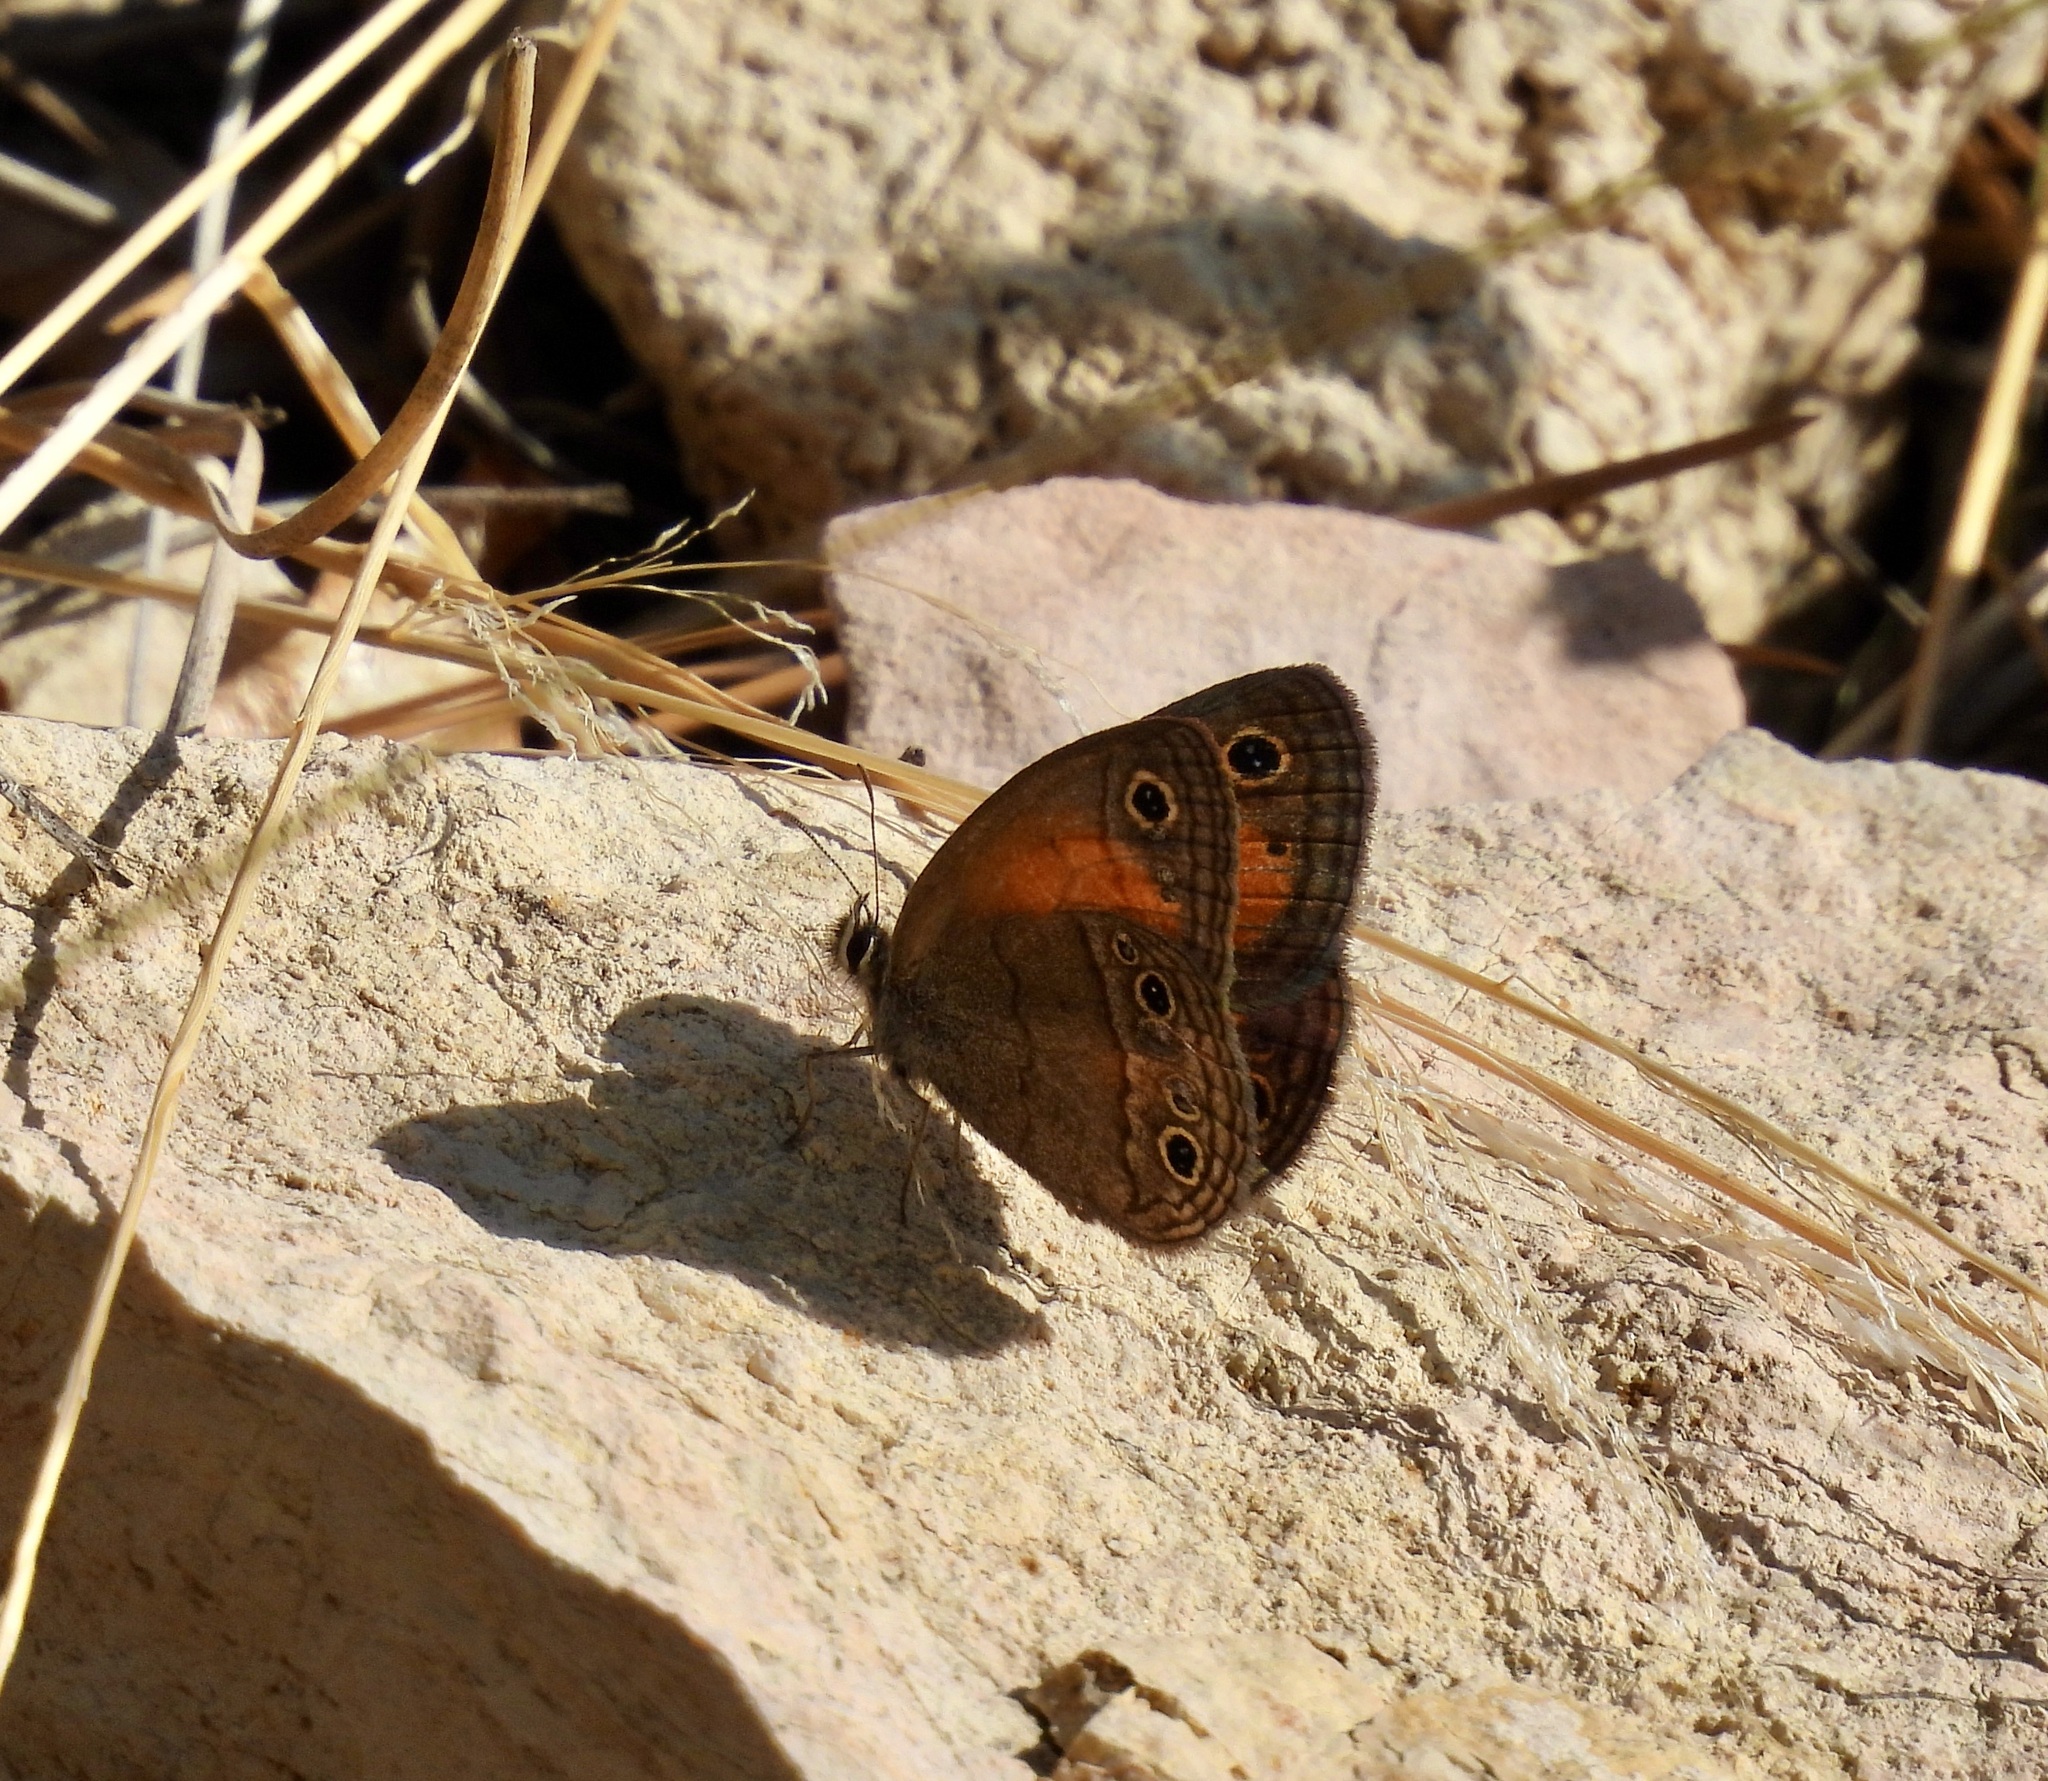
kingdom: Animalia
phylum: Arthropoda
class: Insecta
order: Lepidoptera
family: Nymphalidae
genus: Euptychia
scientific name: Euptychia Cissia rubricata
